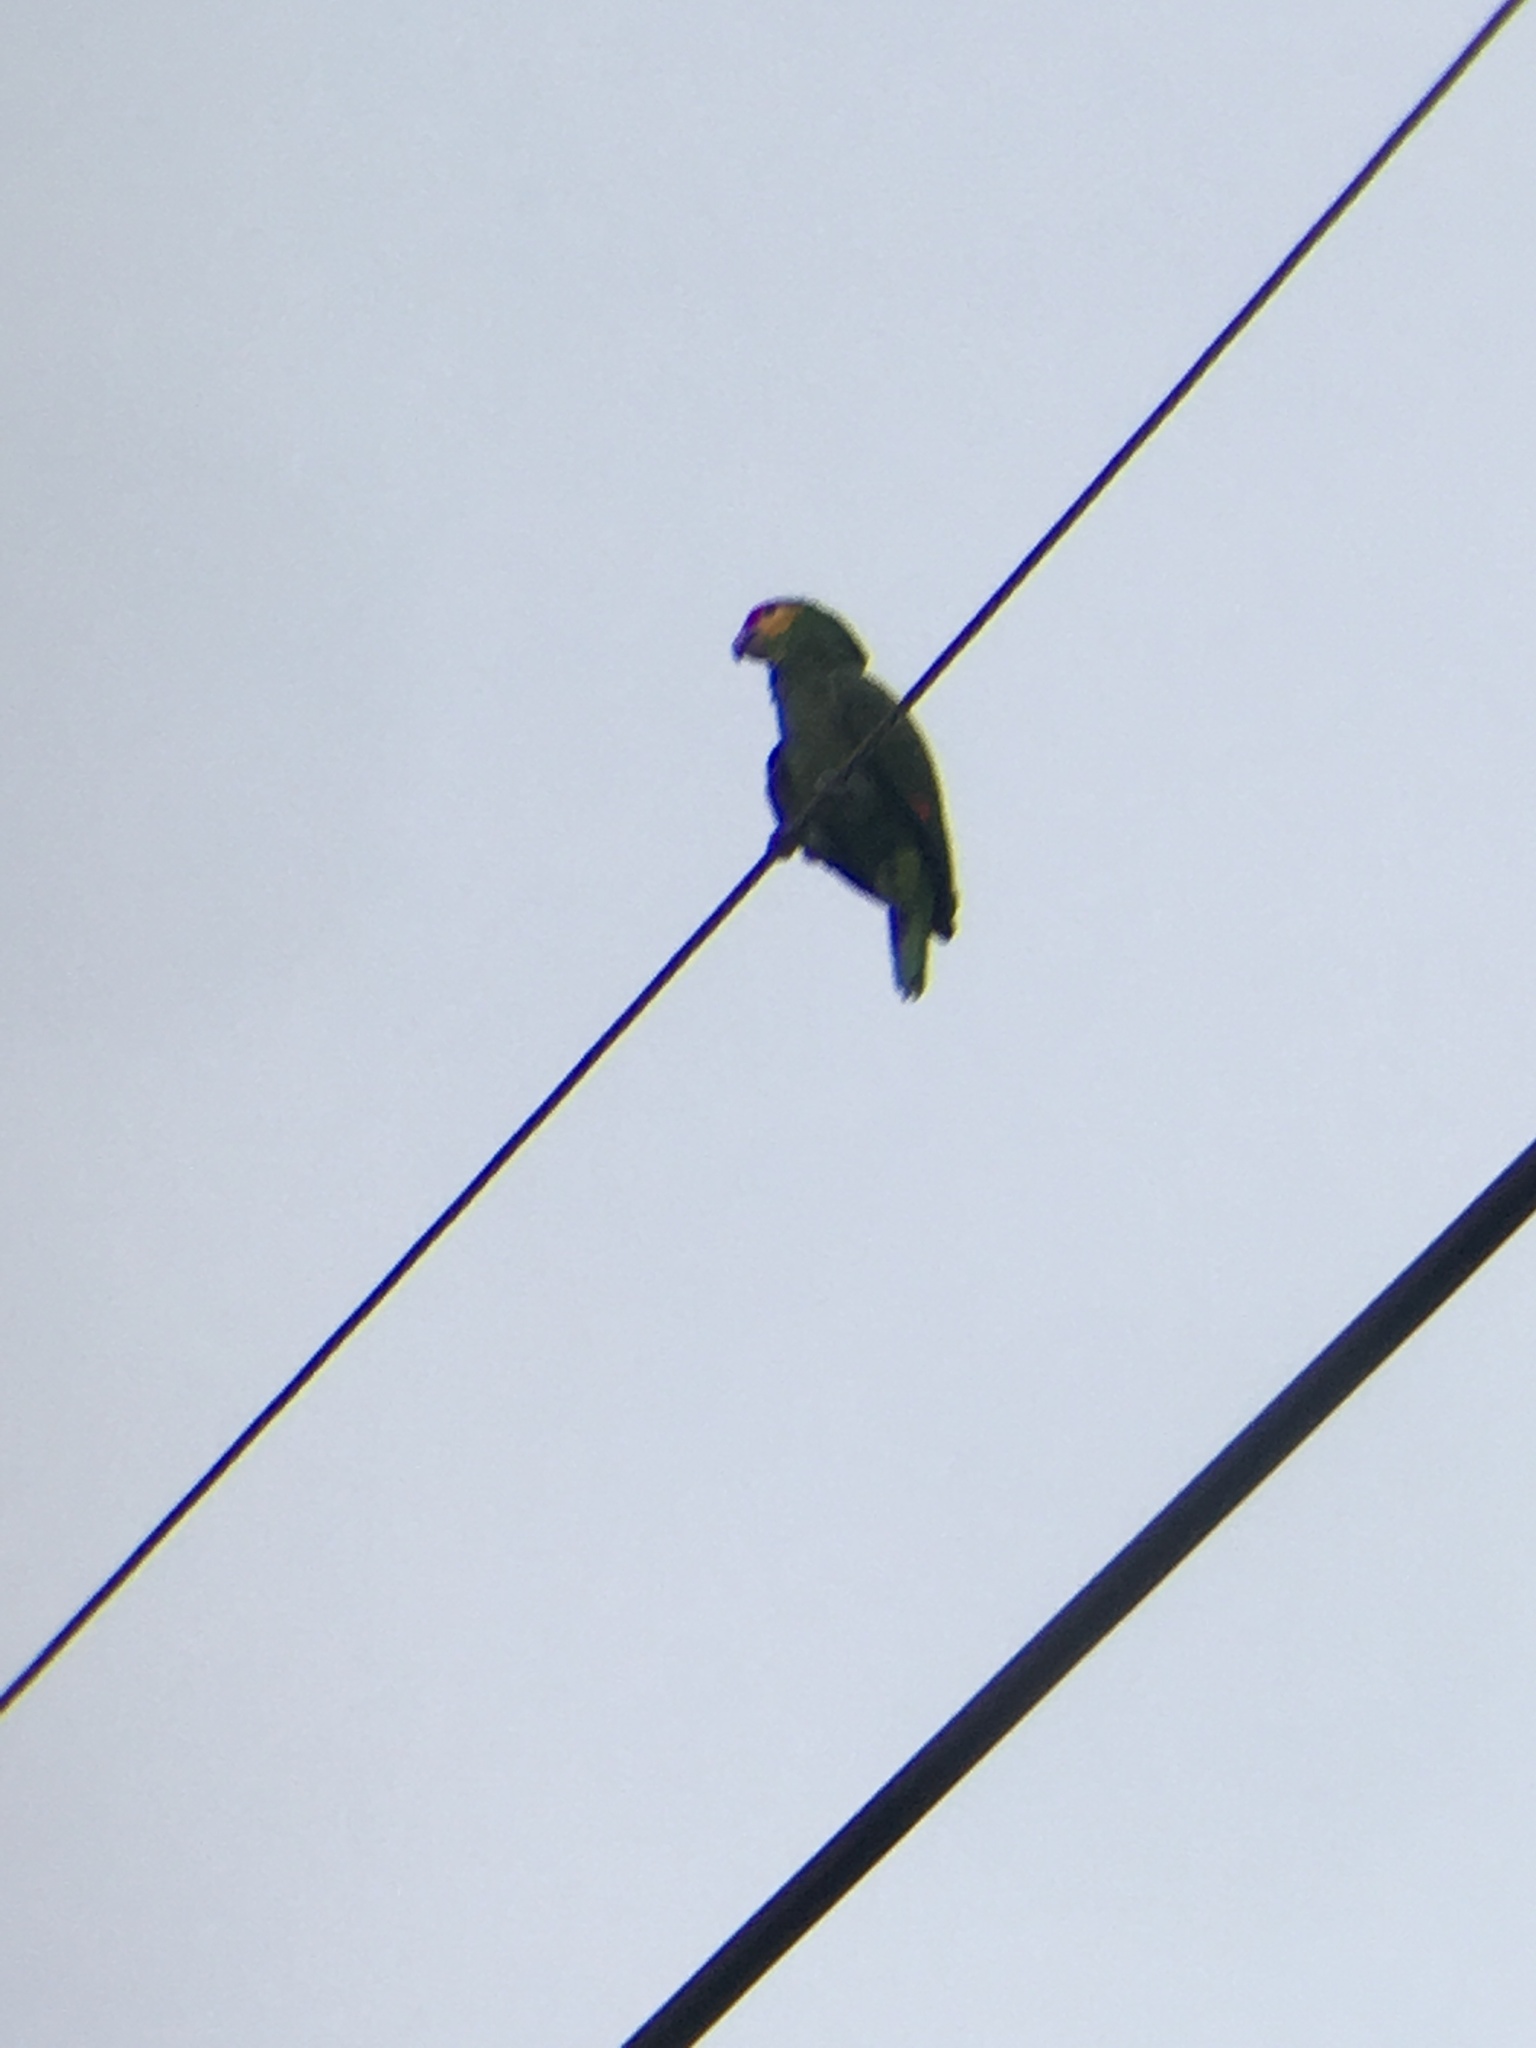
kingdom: Animalia
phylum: Chordata
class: Aves
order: Psittaciformes
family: Psittacidae
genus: Amazona
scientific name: Amazona autumnalis
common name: Red-lored amazon
